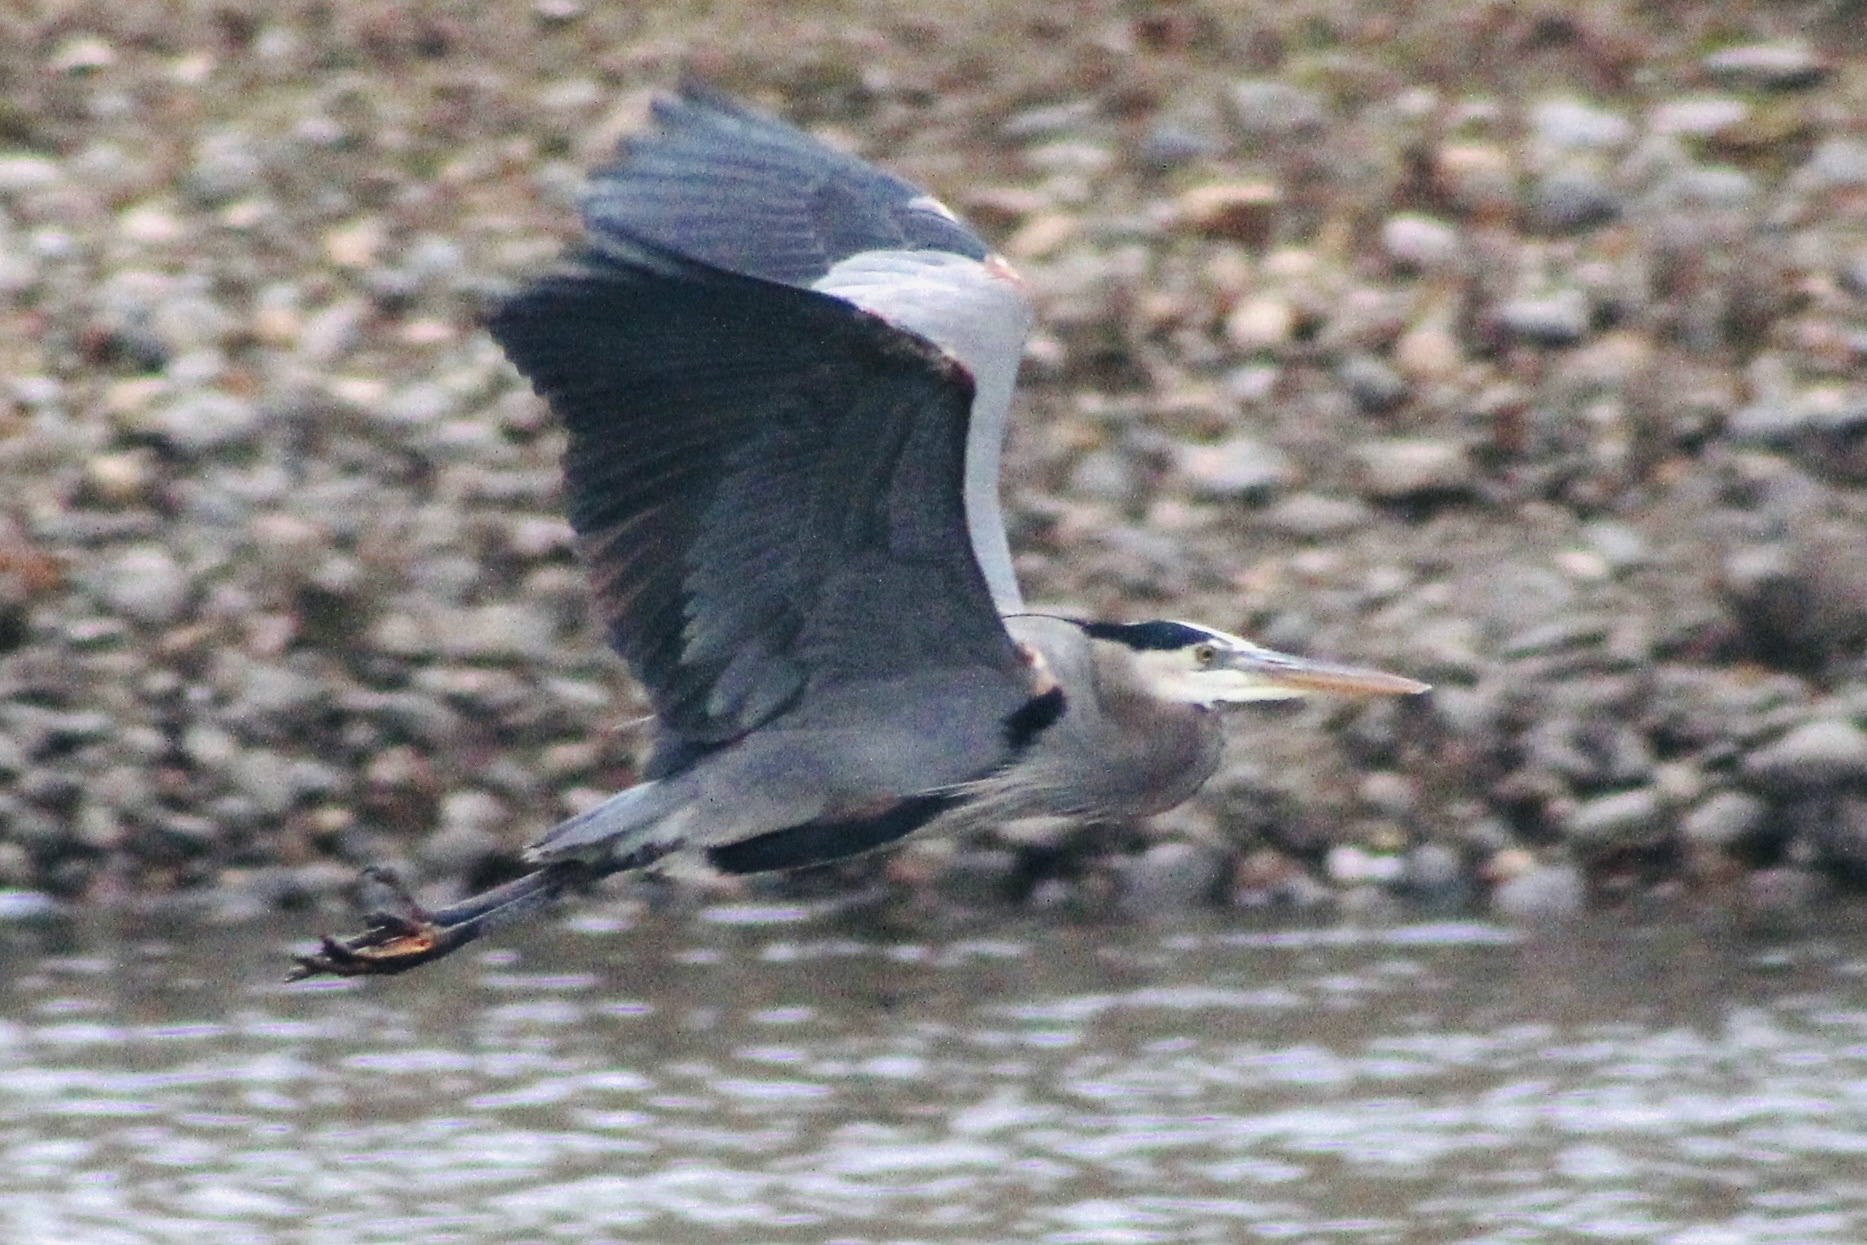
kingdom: Animalia
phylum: Chordata
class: Aves
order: Pelecaniformes
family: Ardeidae
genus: Ardea
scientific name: Ardea herodias
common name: Great blue heron
